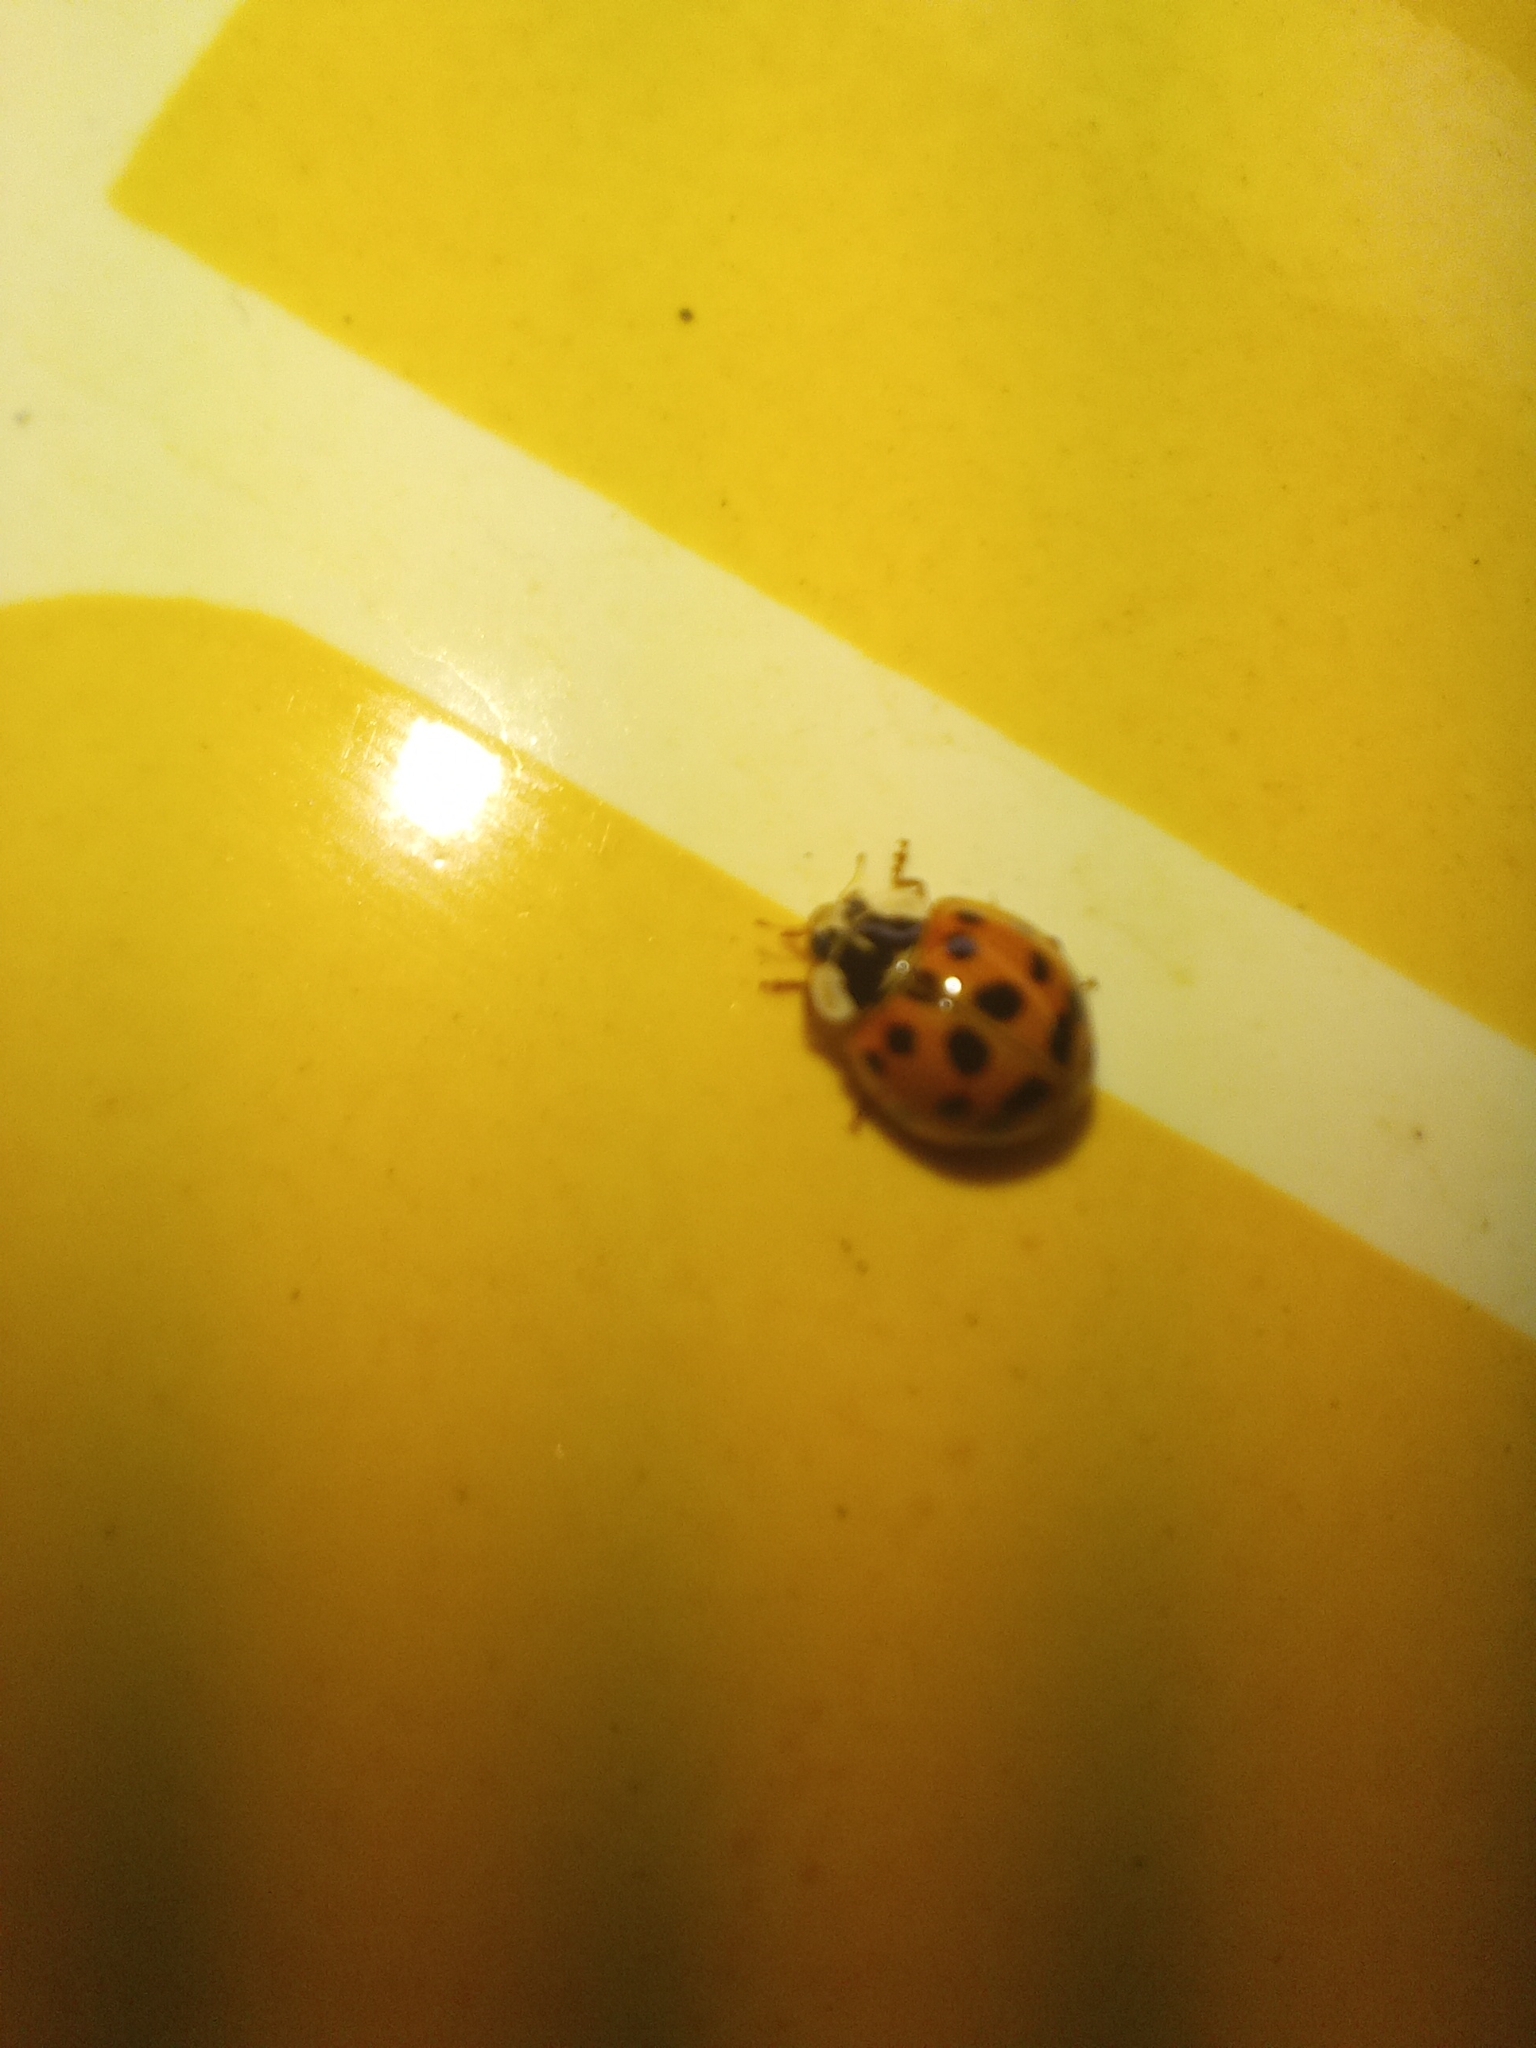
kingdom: Animalia
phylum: Arthropoda
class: Insecta
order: Coleoptera
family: Coccinellidae
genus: Harmonia
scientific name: Harmonia axyridis
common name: Harlequin ladybird
